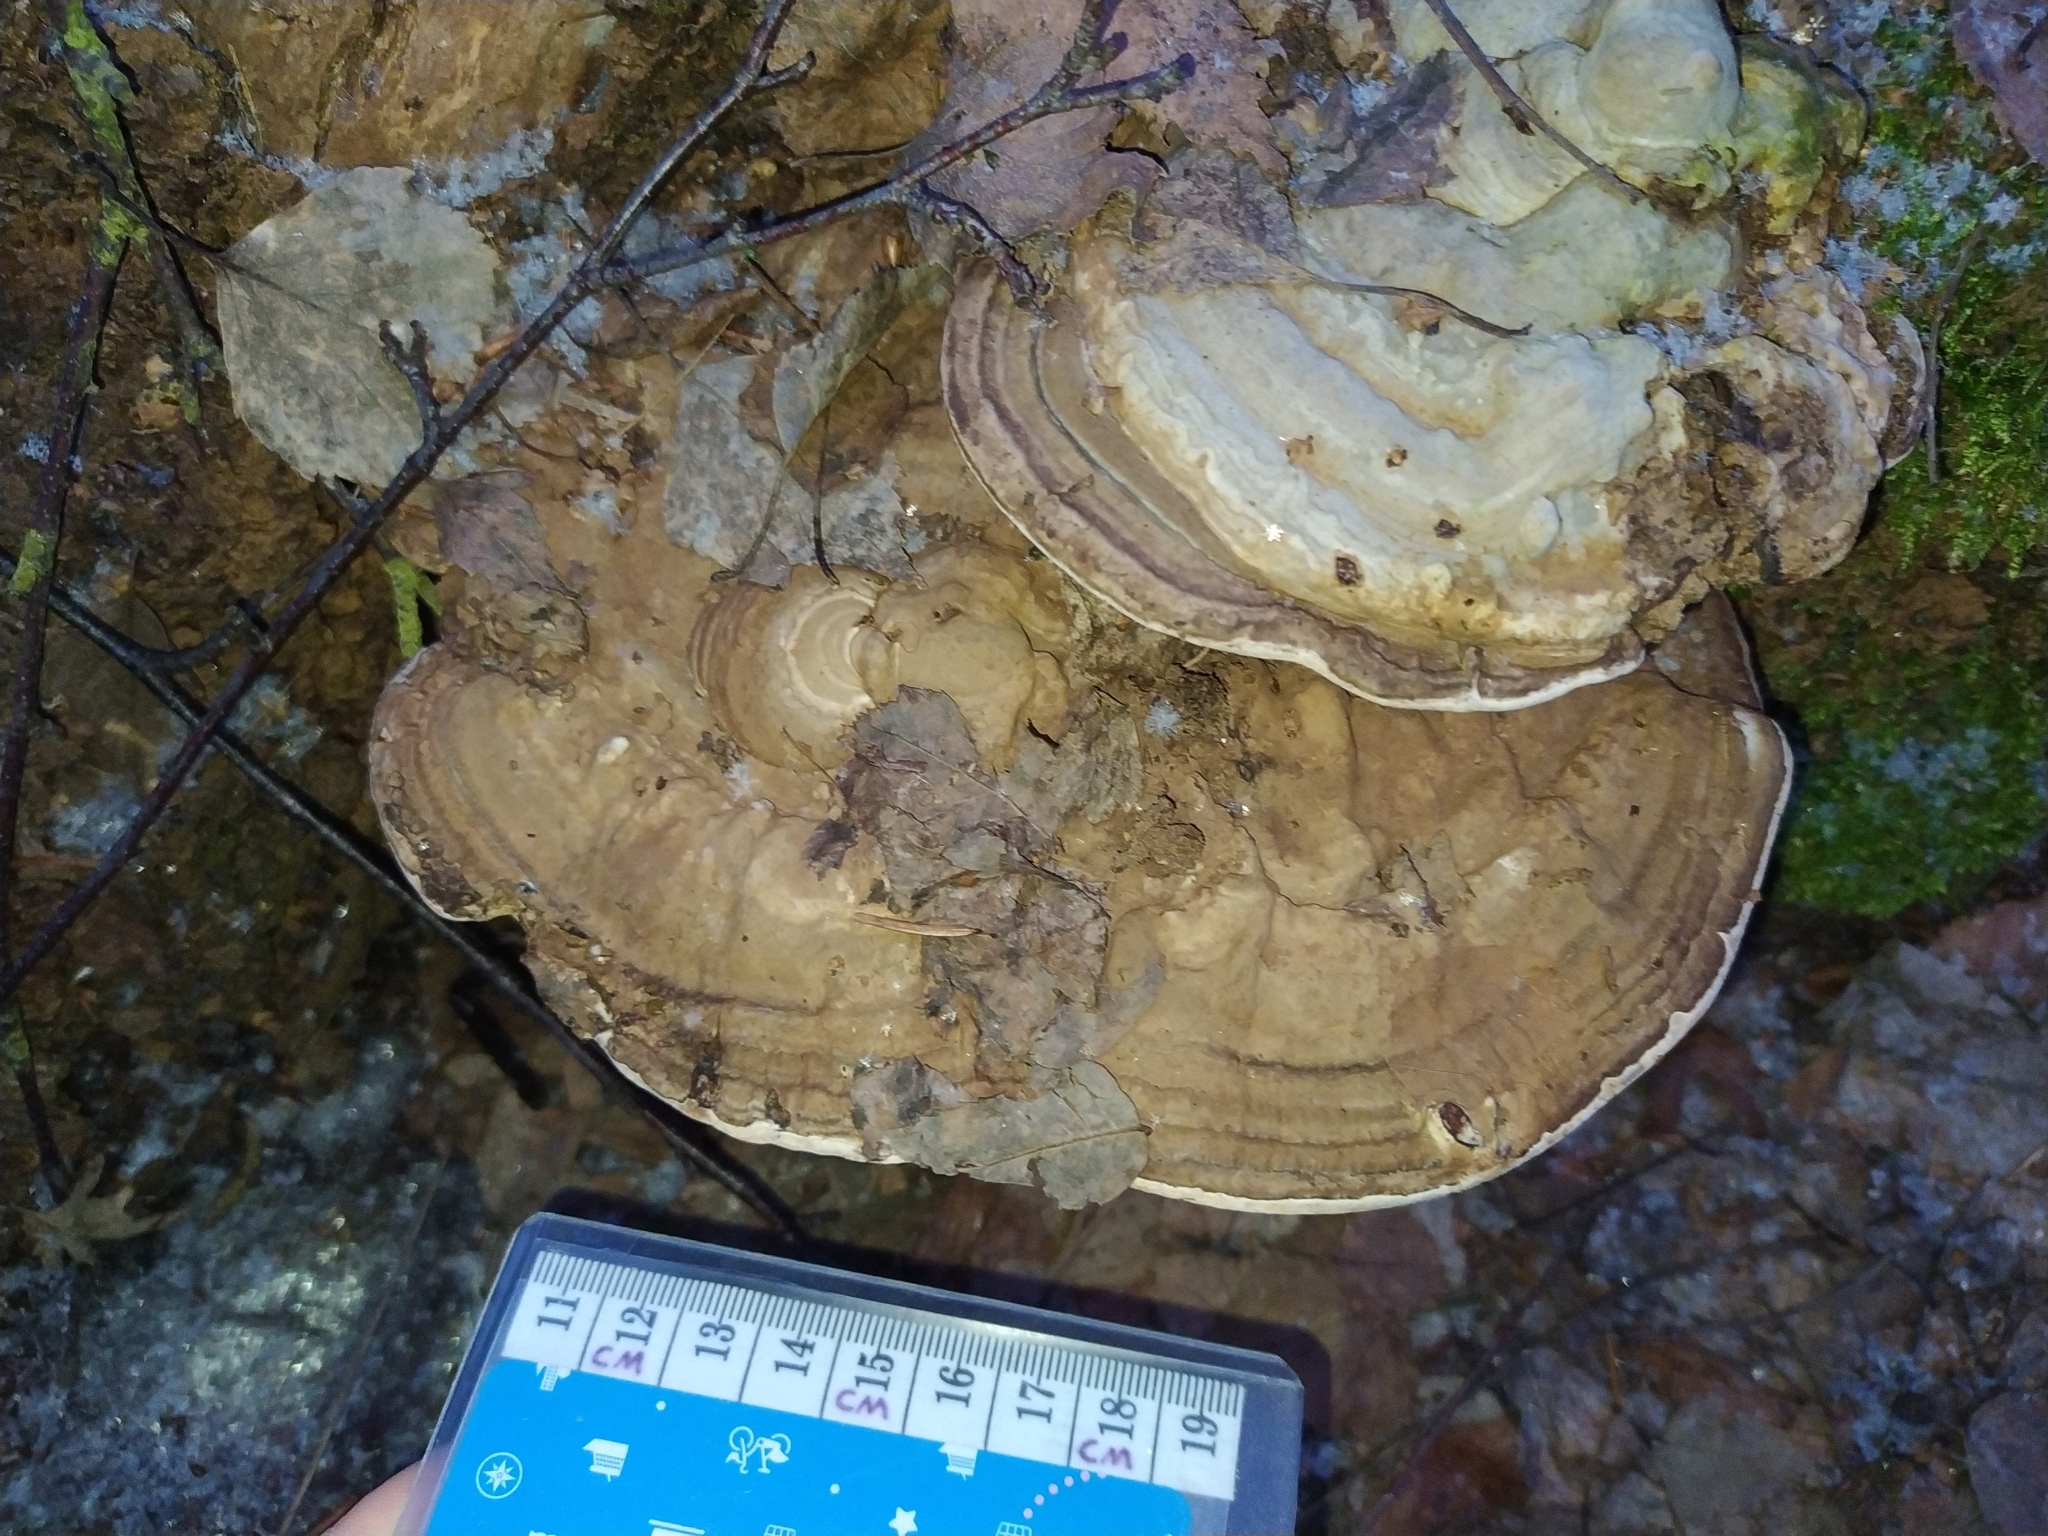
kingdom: Fungi
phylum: Basidiomycota
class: Agaricomycetes
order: Polyporales
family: Polyporaceae
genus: Ganoderma
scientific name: Ganoderma applanatum
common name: Artist's bracket
